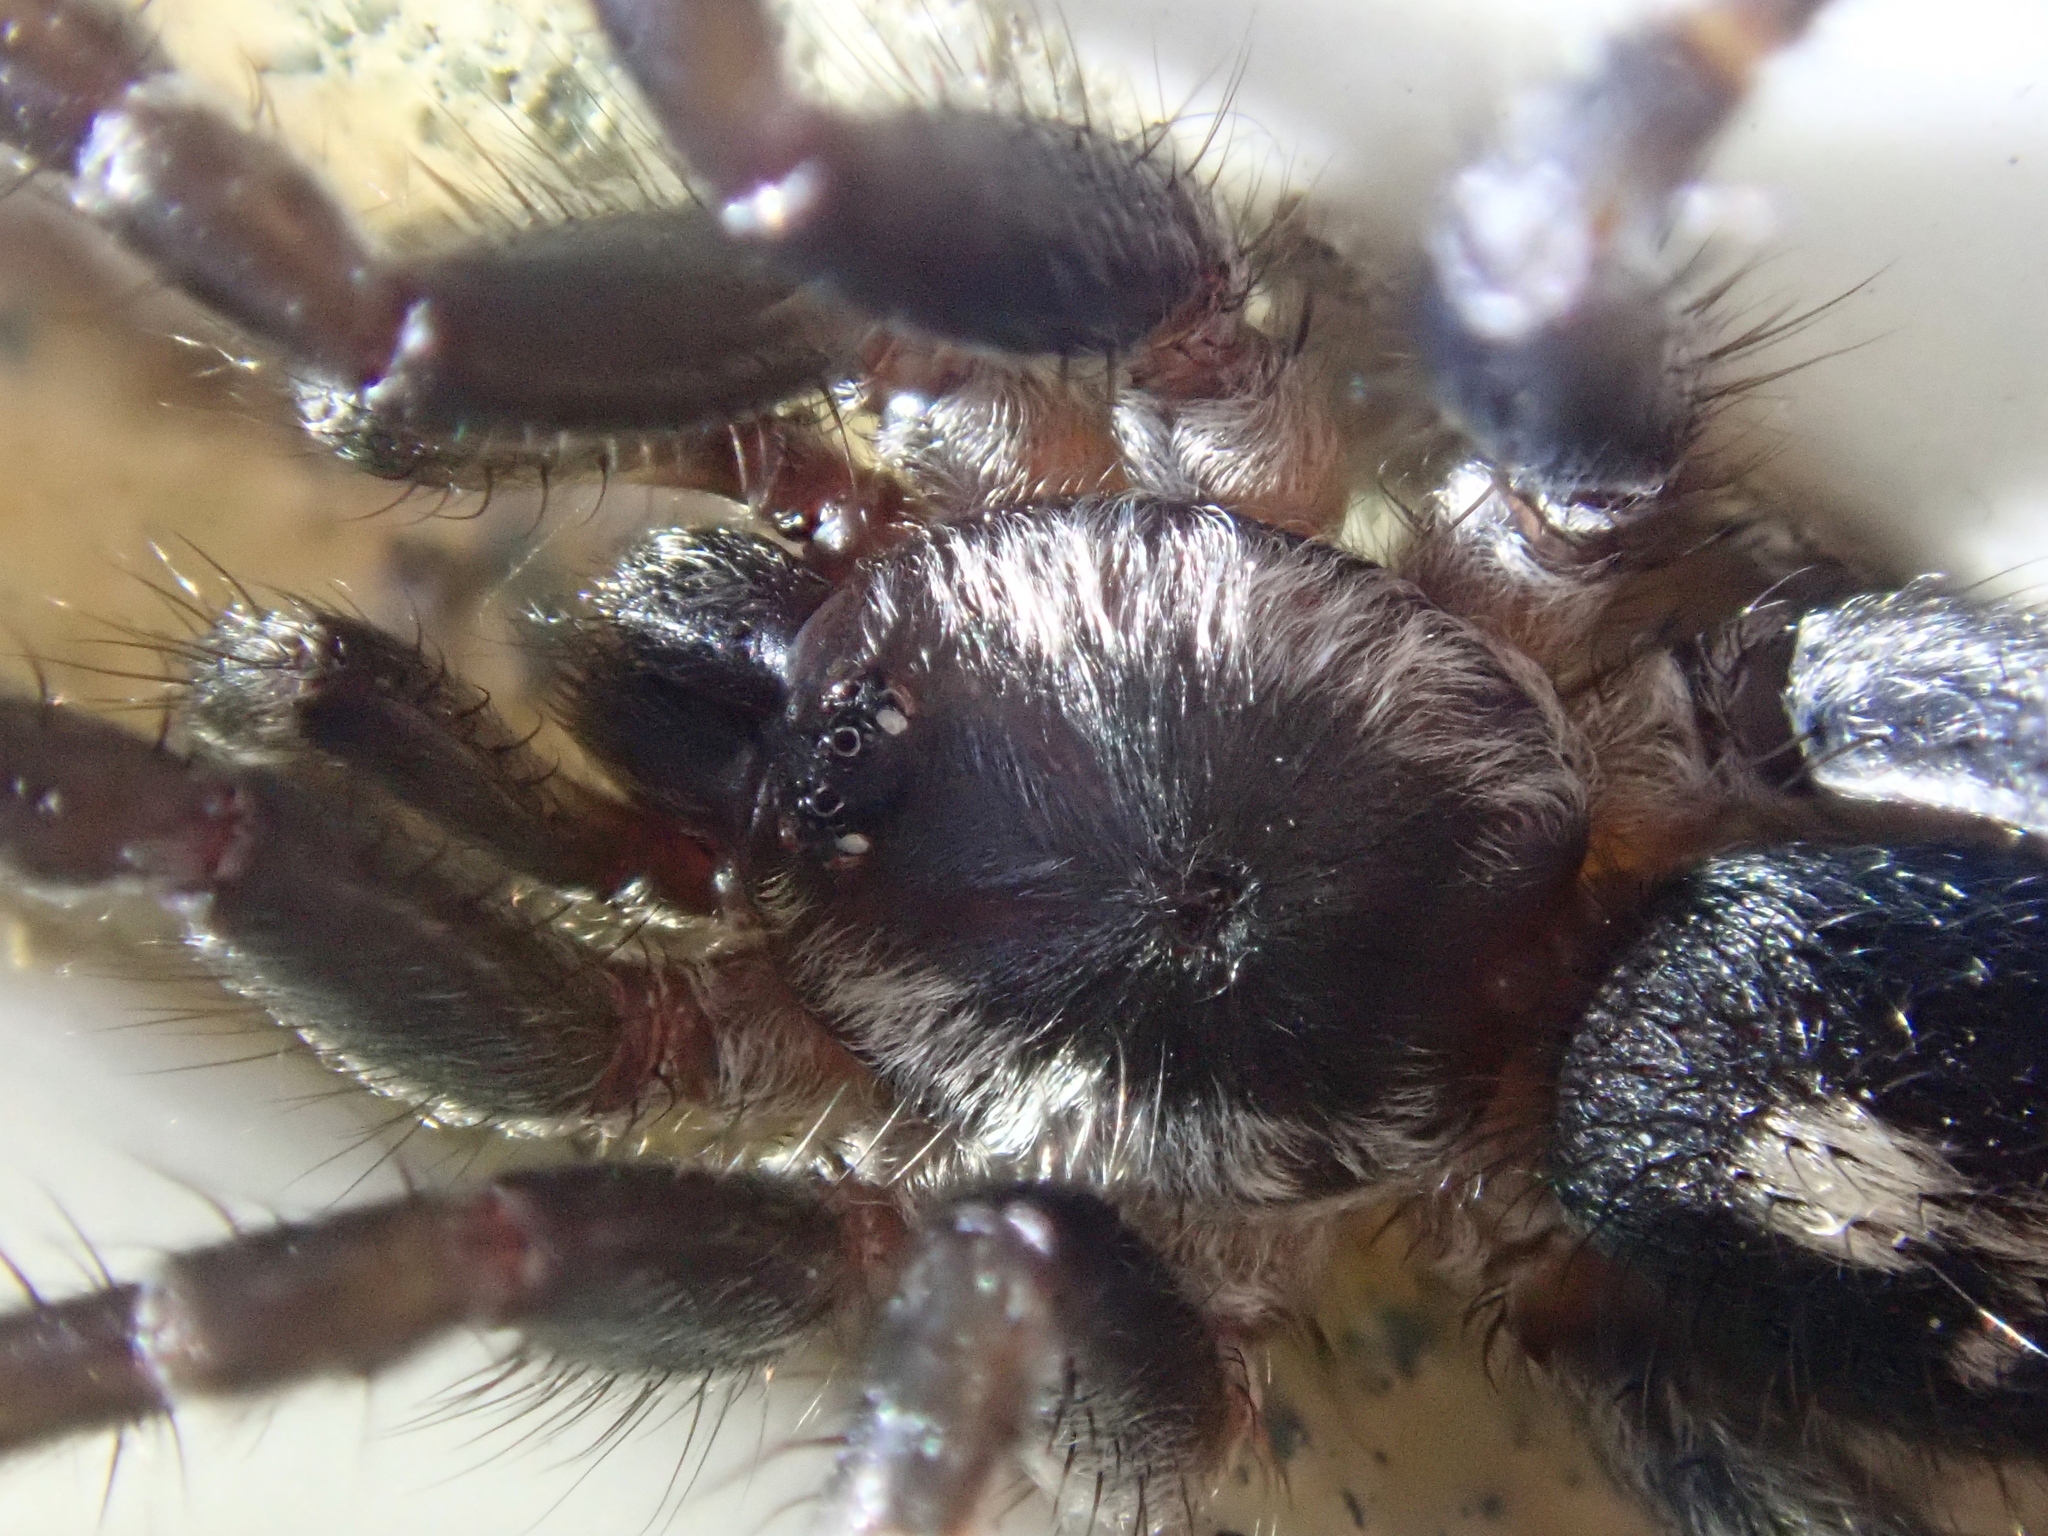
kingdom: Animalia
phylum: Arthropoda
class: Arachnida
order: Araneae
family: Ischnothelidae
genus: Ischnothele
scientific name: Ischnothele annulata
